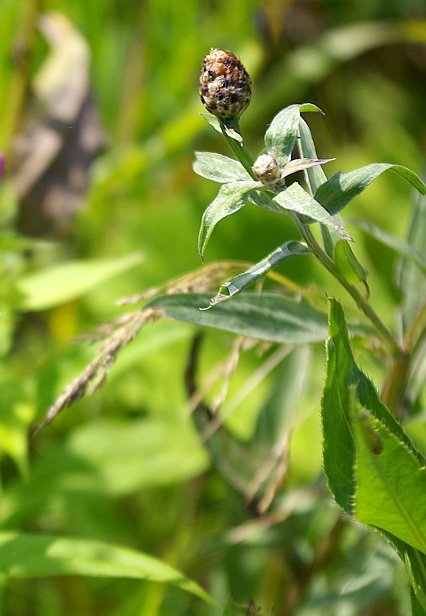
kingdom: Plantae
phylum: Tracheophyta
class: Magnoliopsida
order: Asterales
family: Asteraceae
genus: Centaurea
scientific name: Centaurea jacea
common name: Brown knapweed
